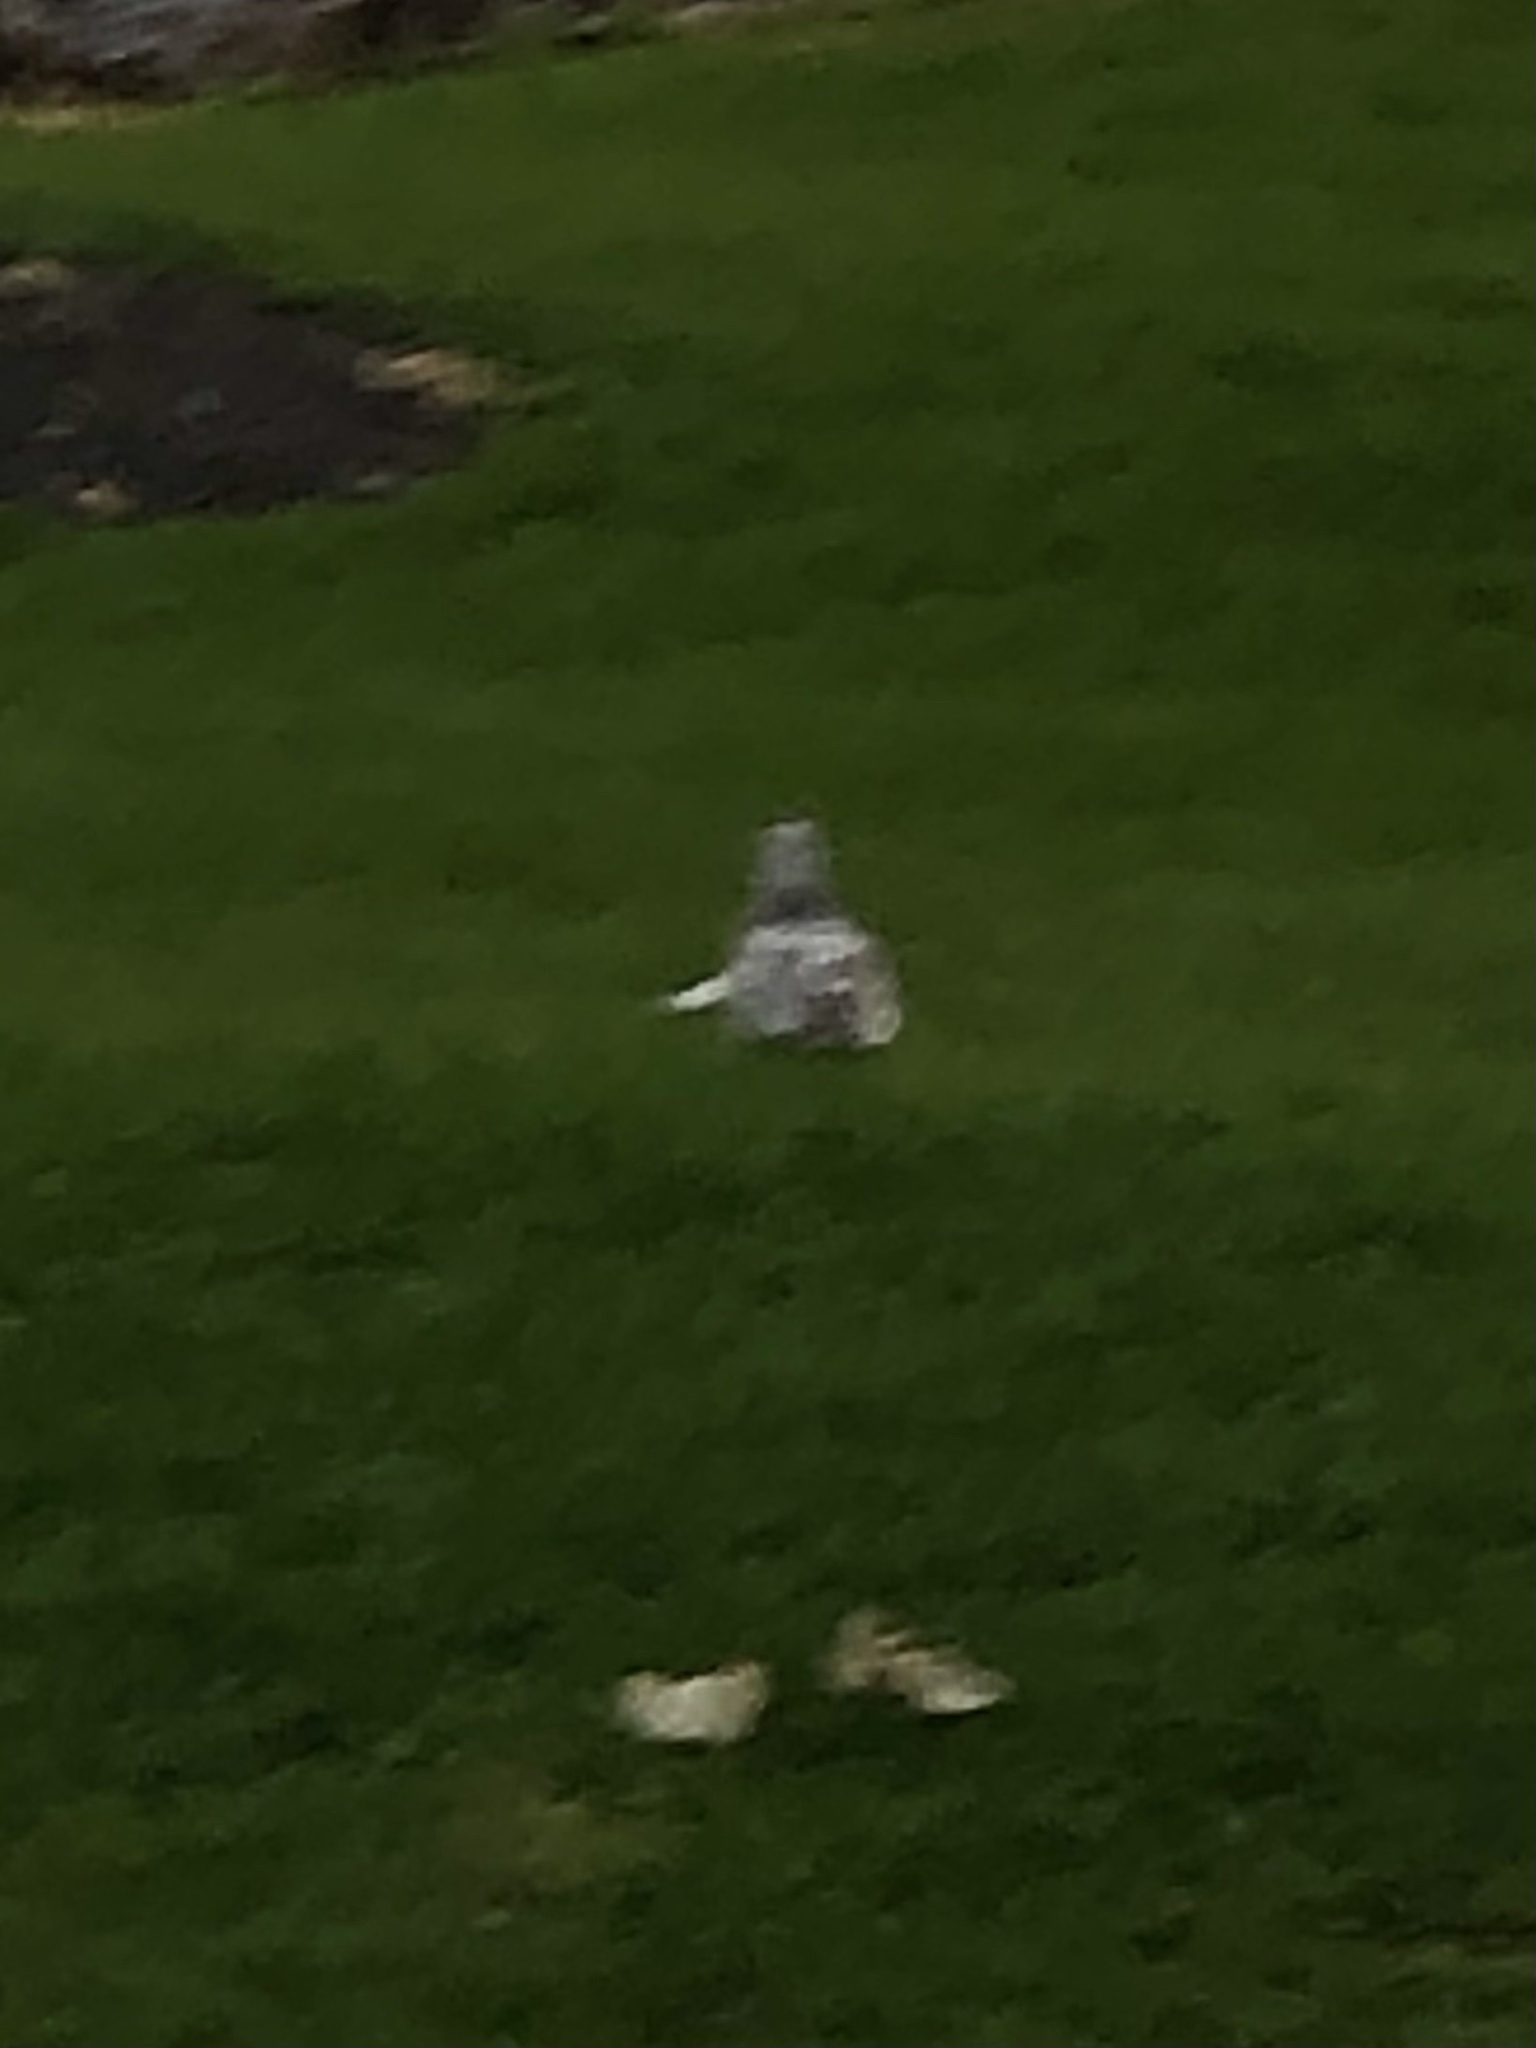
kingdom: Animalia
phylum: Chordata
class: Aves
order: Charadriiformes
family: Laridae
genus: Larus
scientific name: Larus delawarensis
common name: Ring-billed gull
